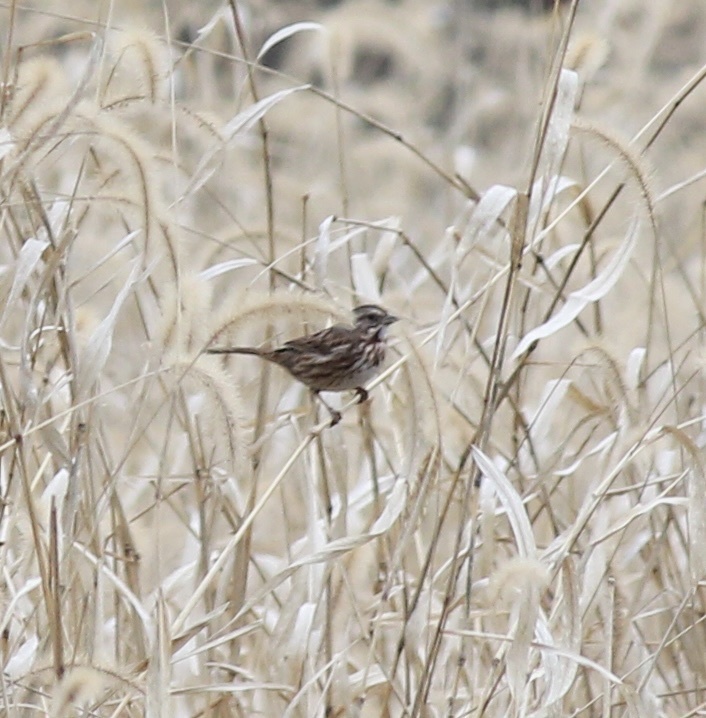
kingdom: Animalia
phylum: Chordata
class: Aves
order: Passeriformes
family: Passerellidae
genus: Melospiza
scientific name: Melospiza melodia
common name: Song sparrow
